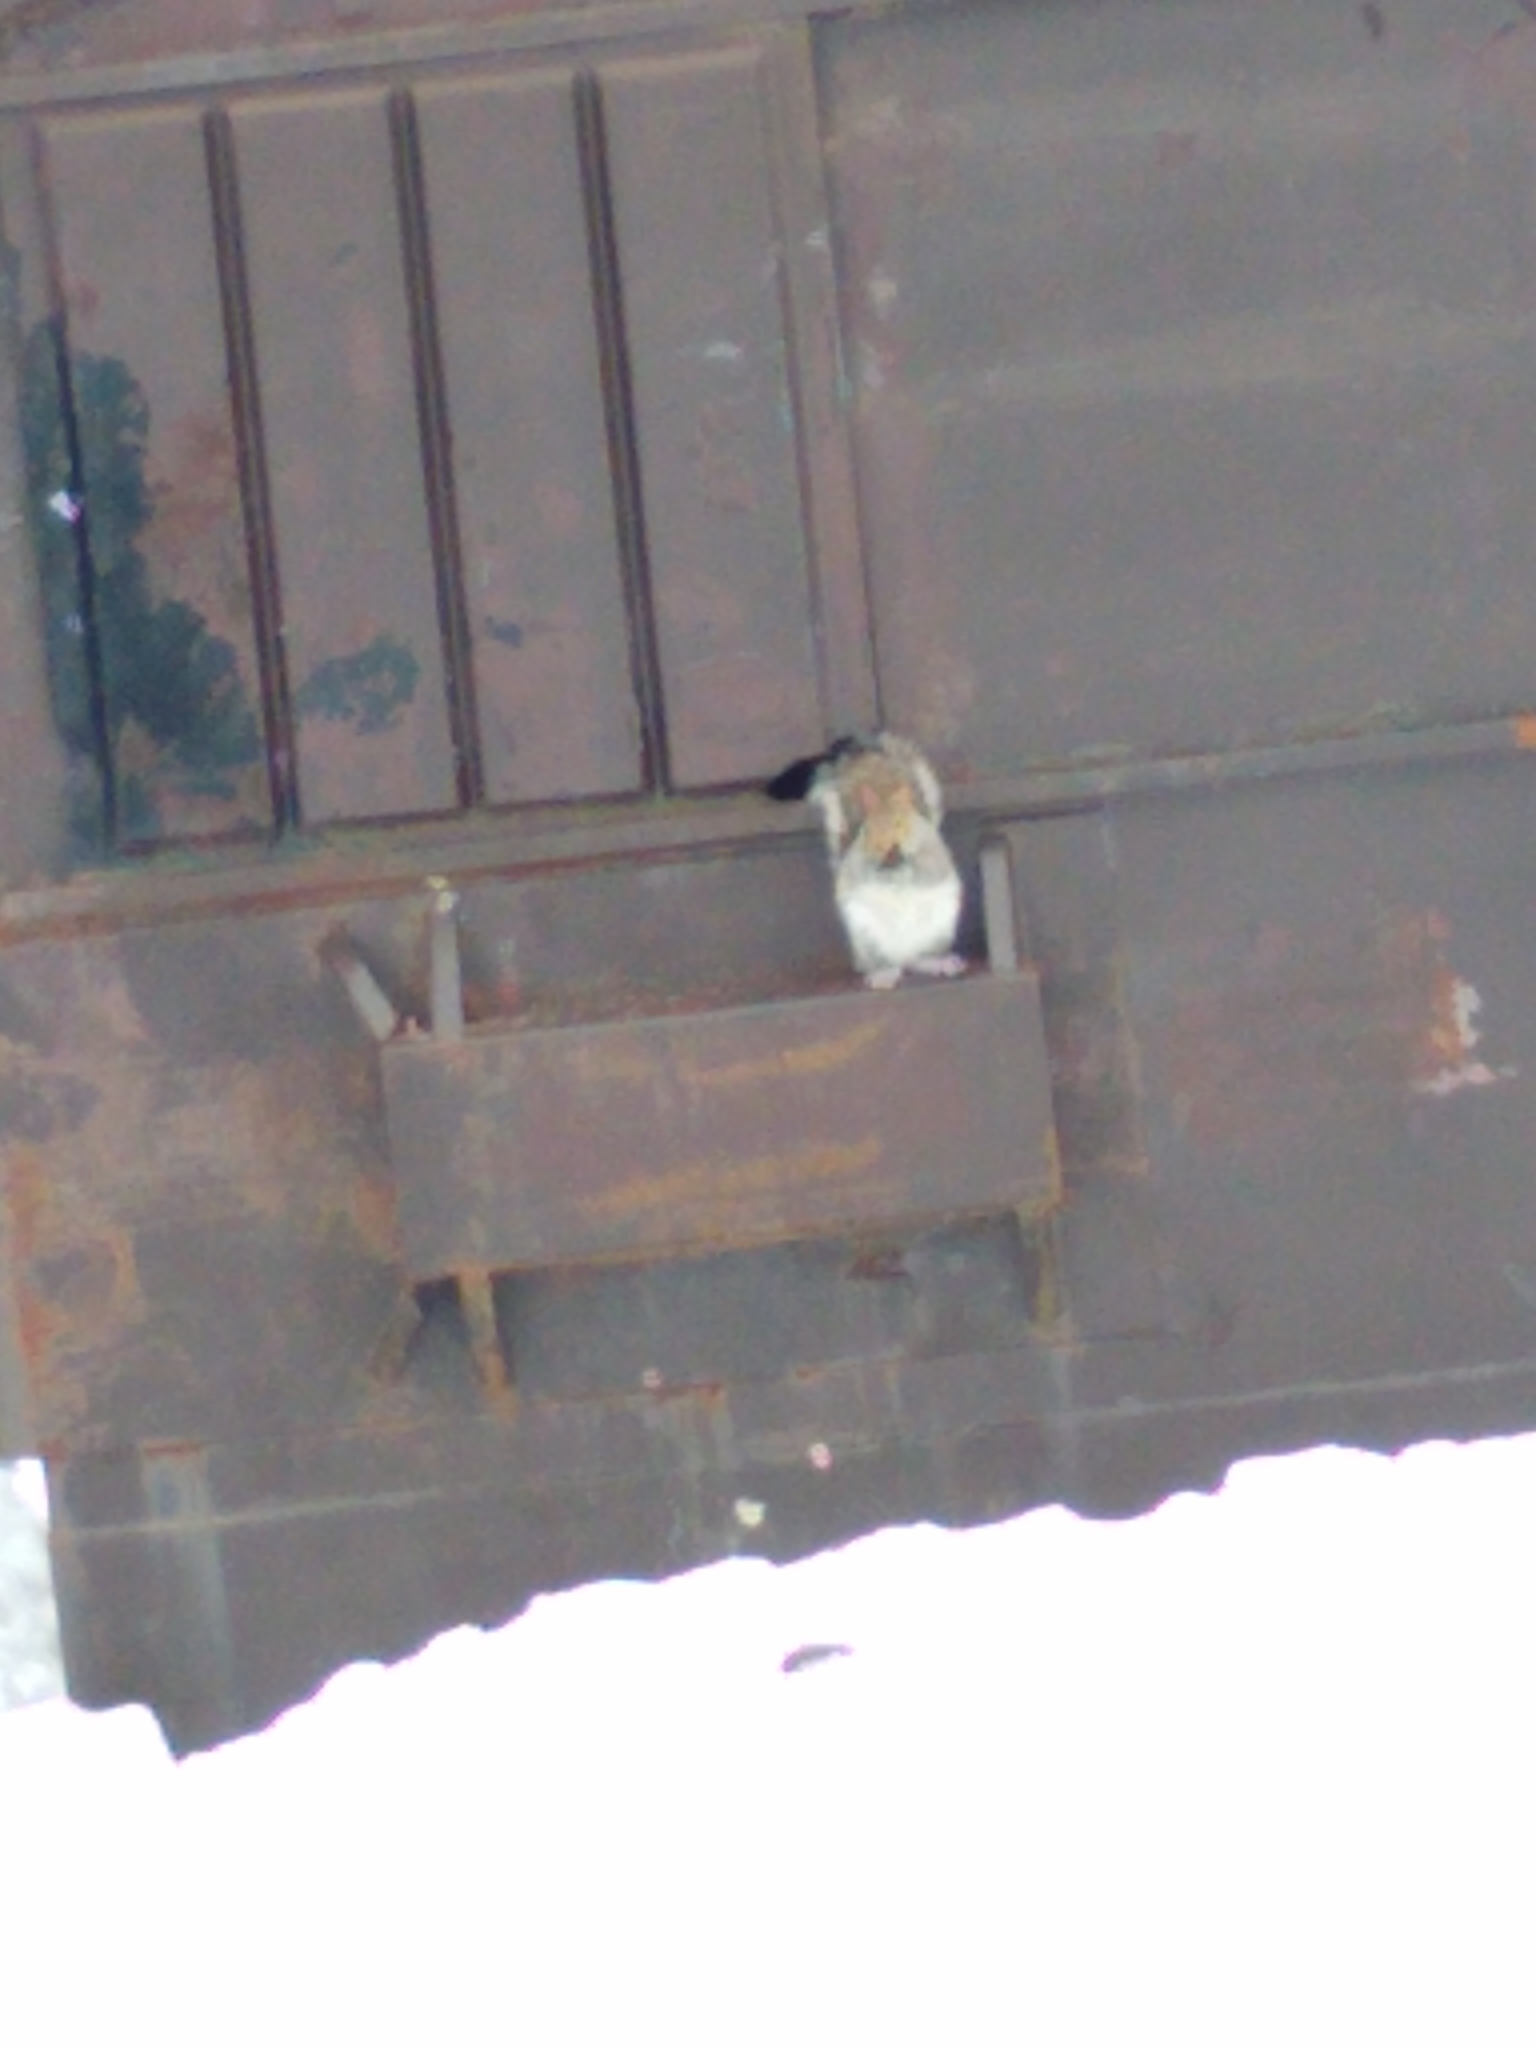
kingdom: Animalia
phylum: Chordata
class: Mammalia
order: Rodentia
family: Sciuridae
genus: Sciurus
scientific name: Sciurus carolinensis
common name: Eastern gray squirrel
